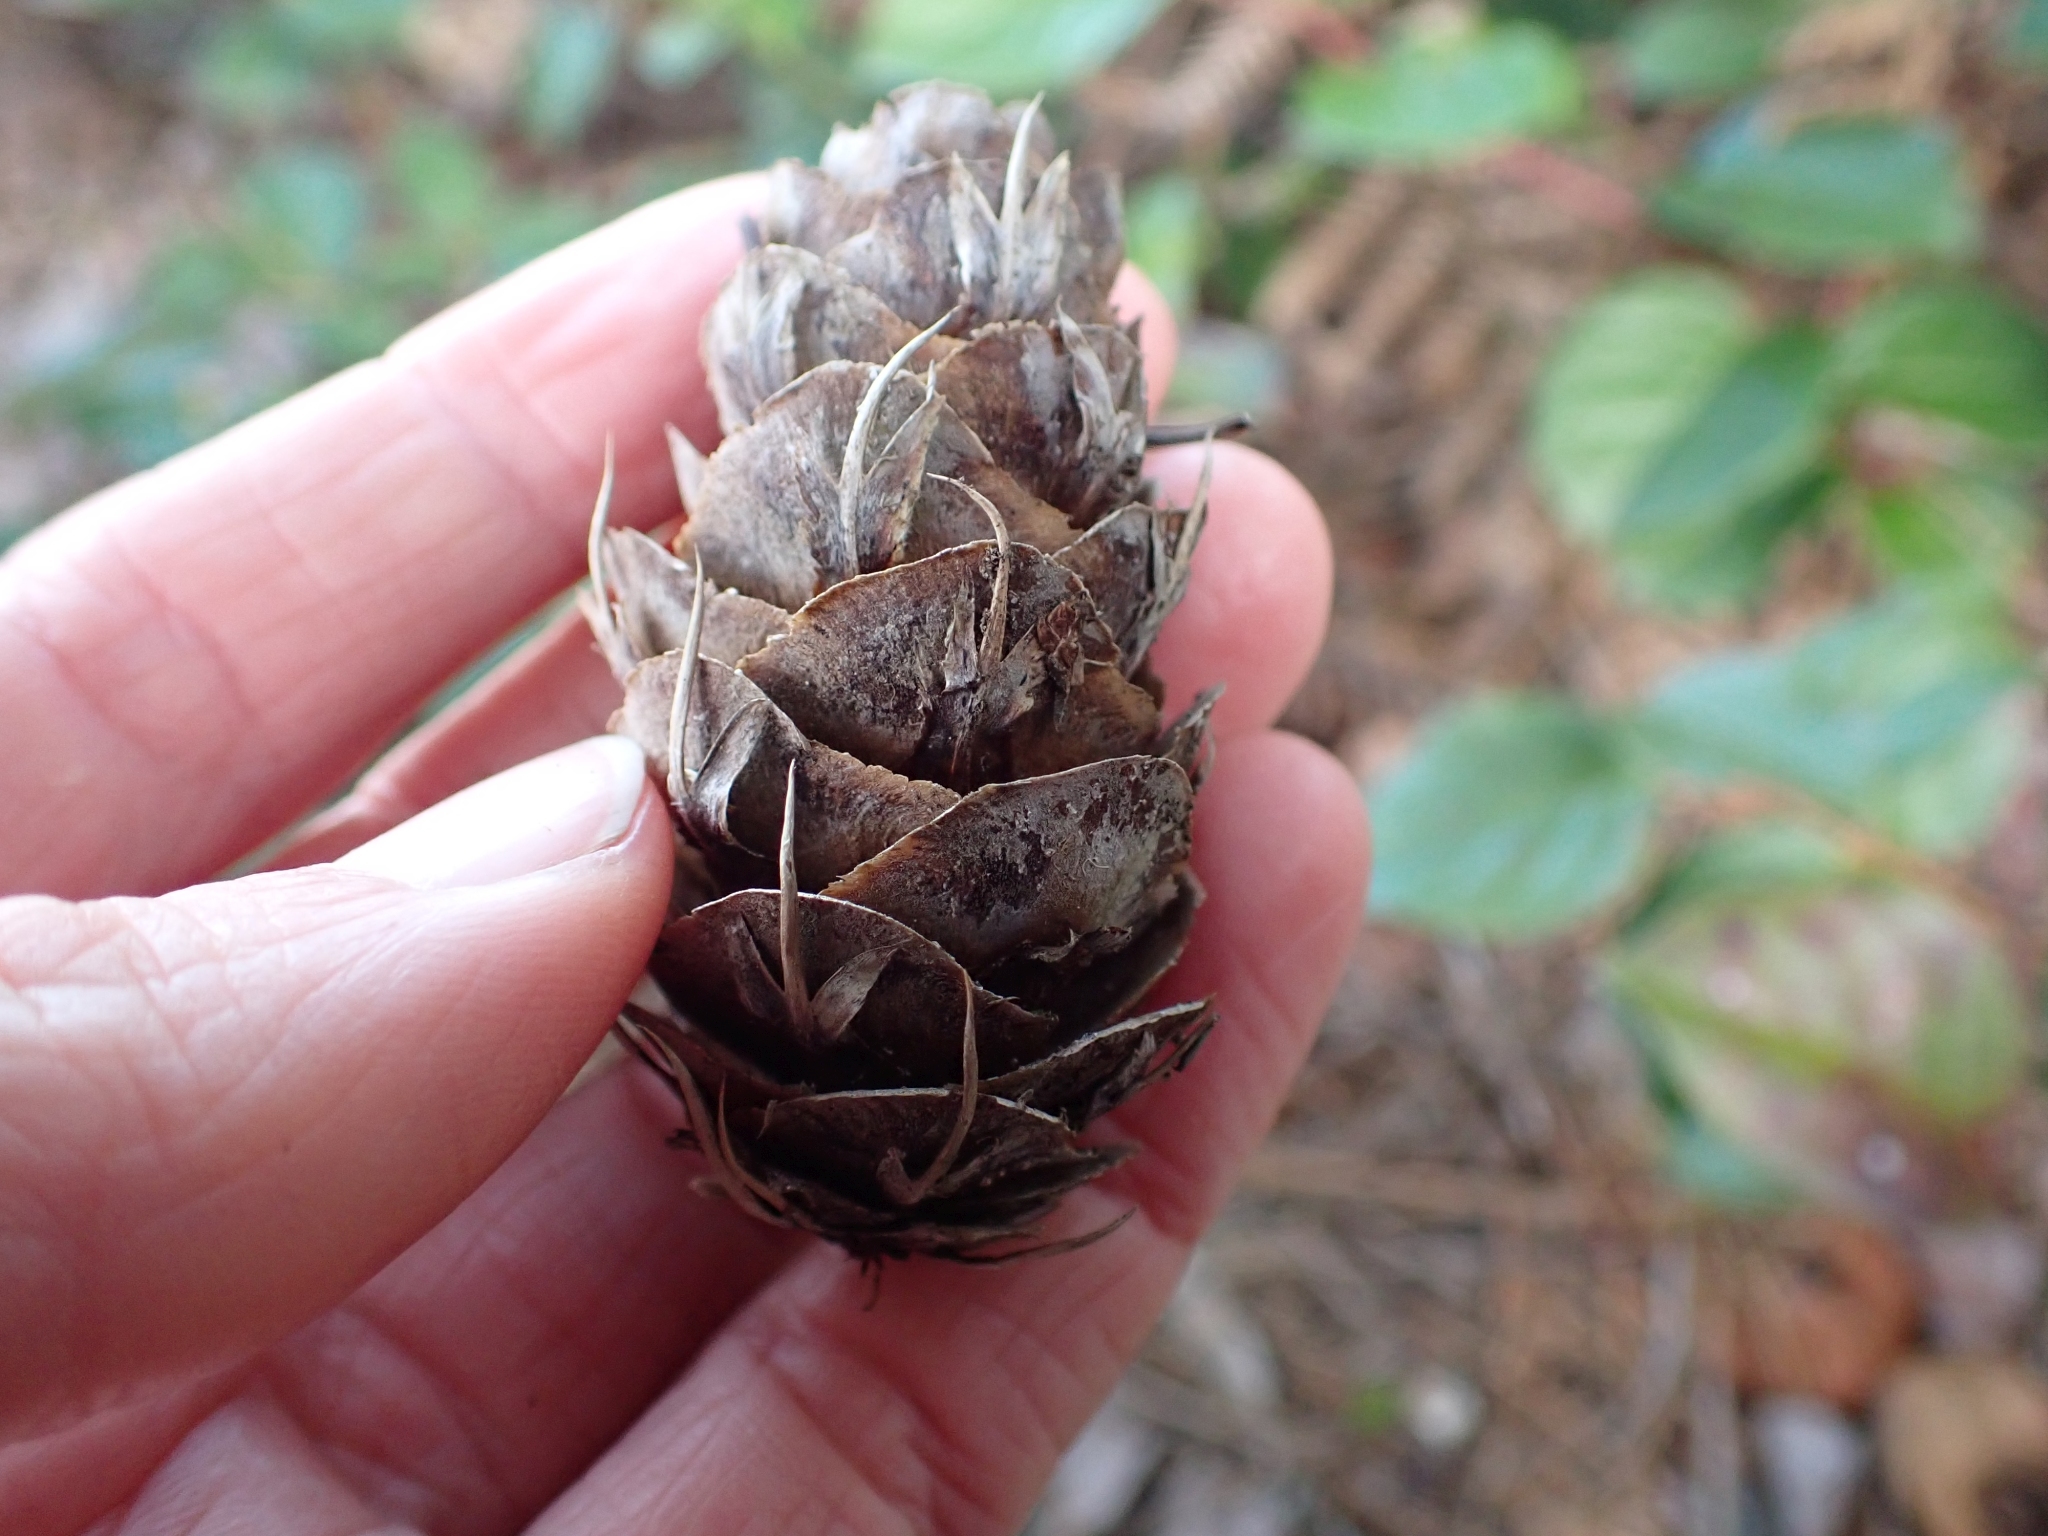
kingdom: Plantae
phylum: Tracheophyta
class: Pinopsida
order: Pinales
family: Pinaceae
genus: Pseudotsuga
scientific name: Pseudotsuga menziesii
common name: Douglas fir
